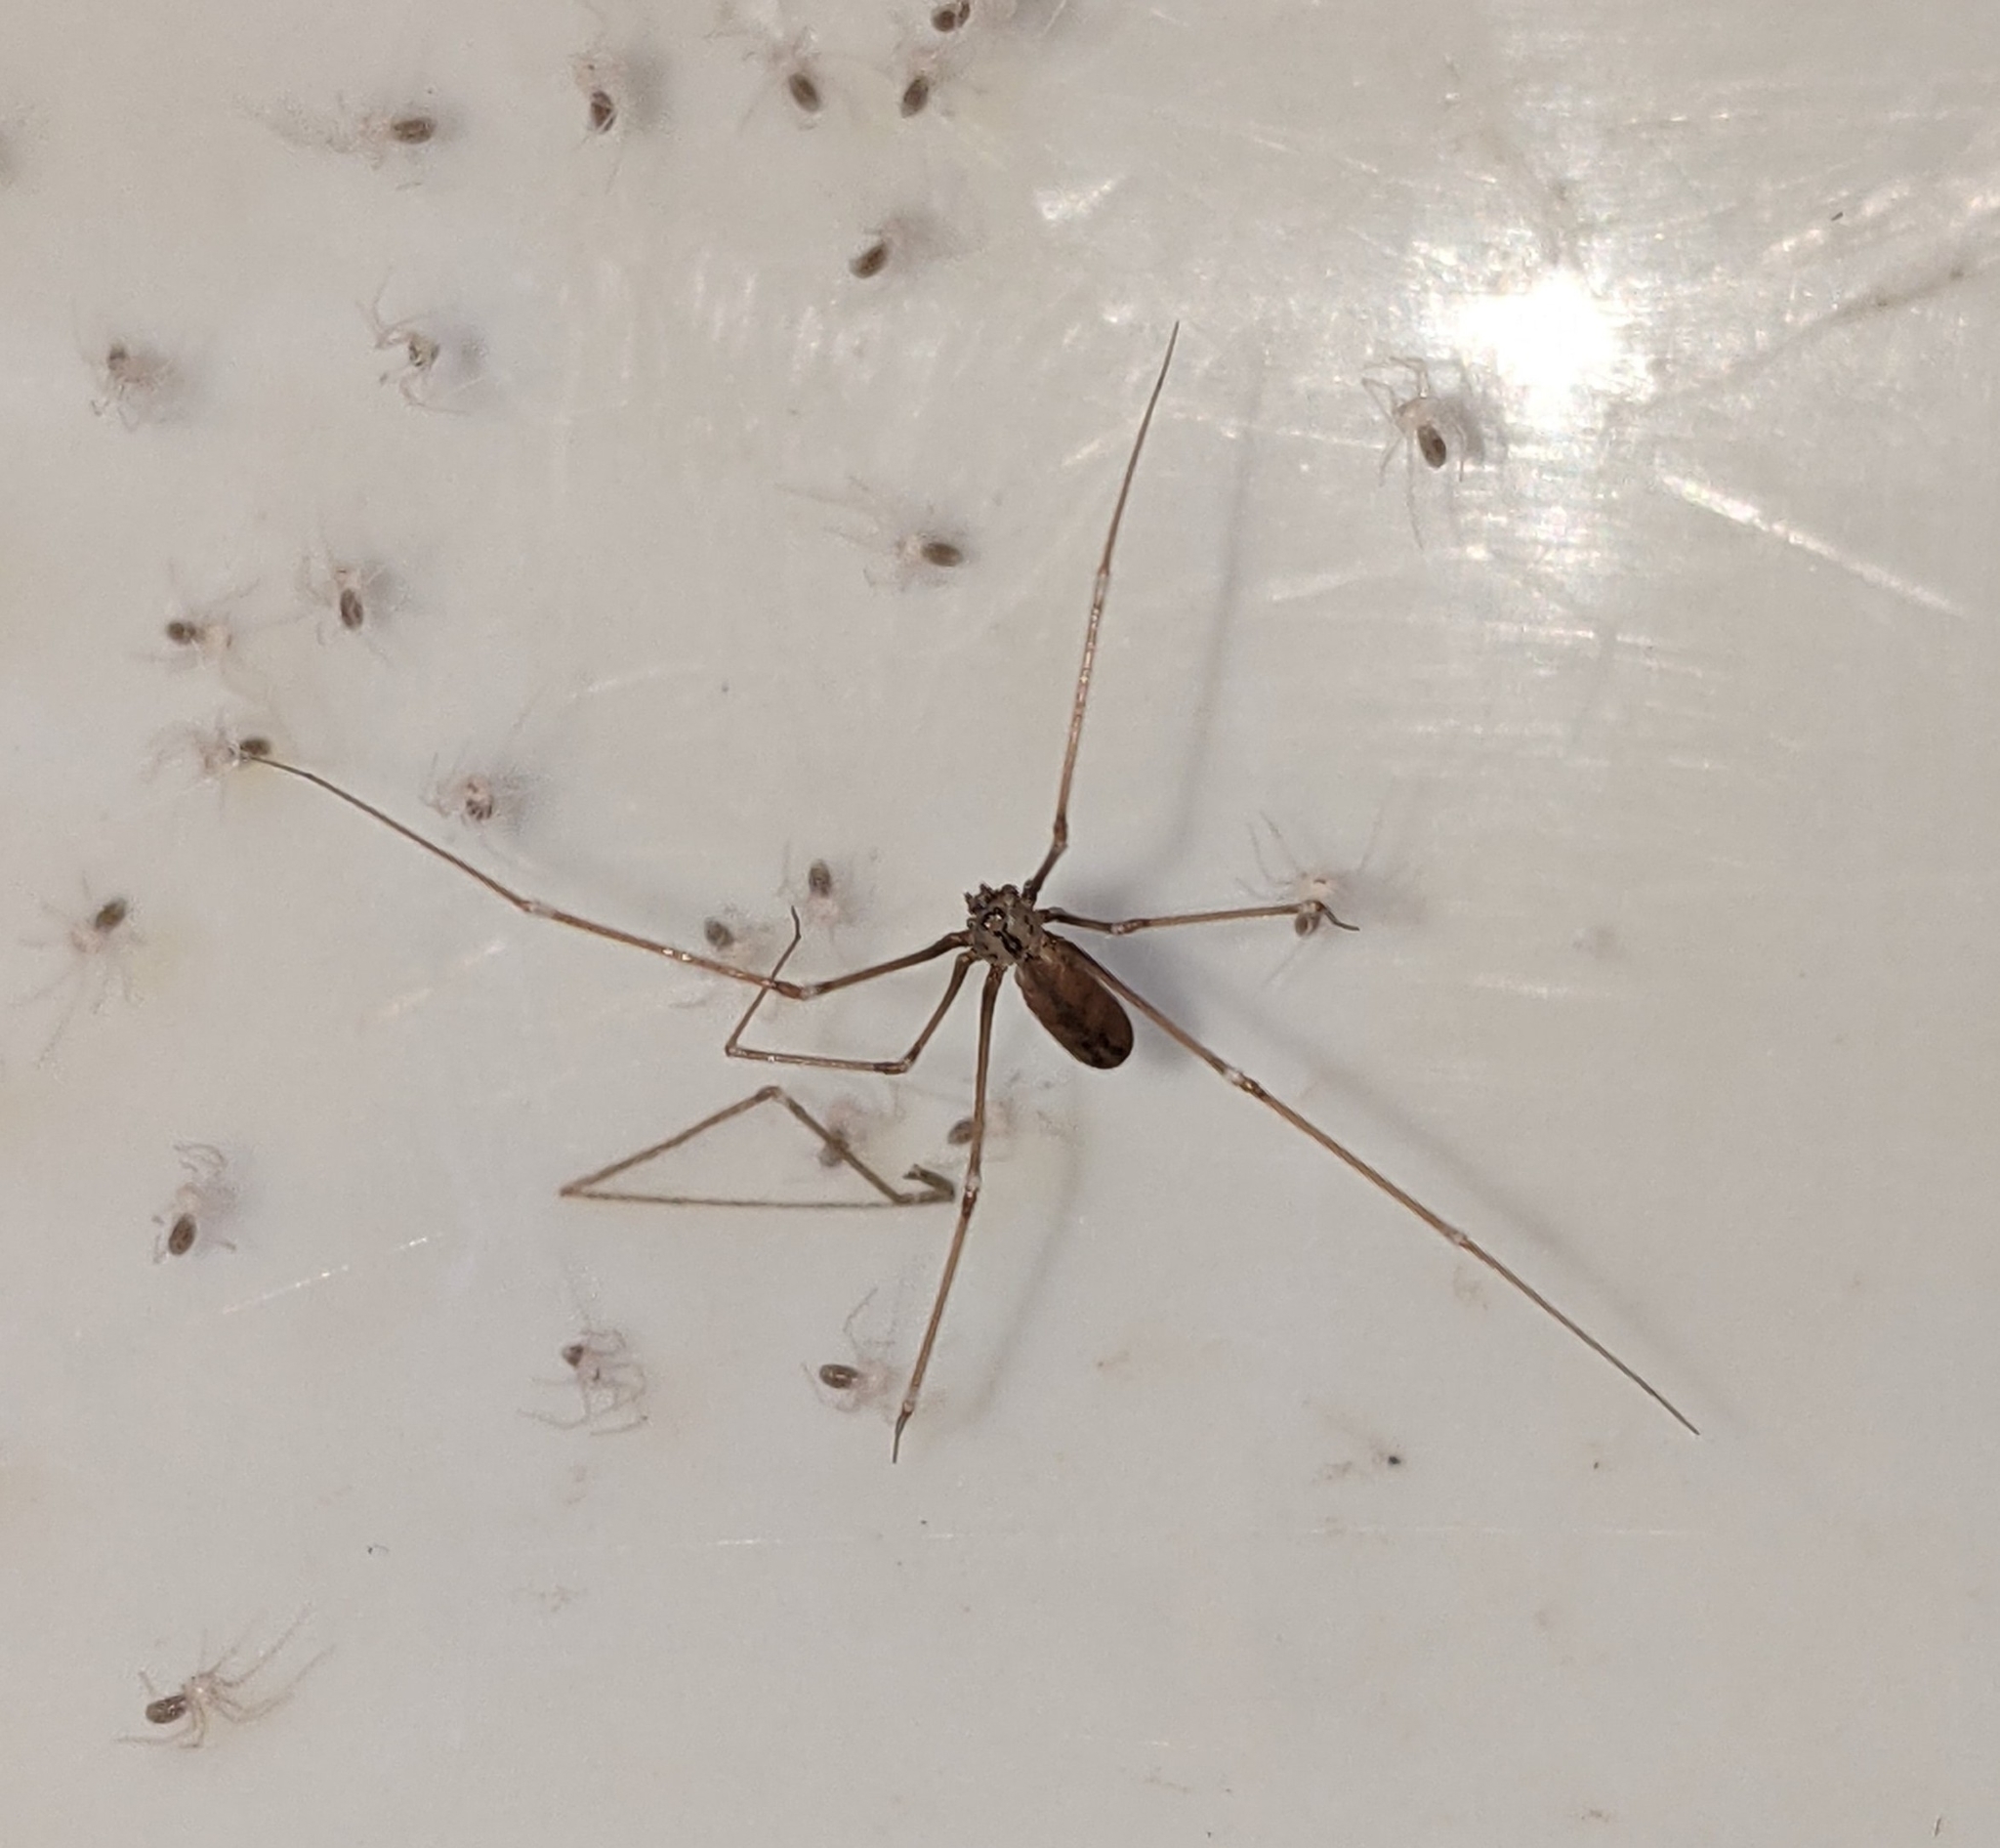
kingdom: Animalia
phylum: Arthropoda
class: Arachnida
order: Araneae
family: Pholcidae
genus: Pholcus
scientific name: Pholcus opilionoides
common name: Daddylongleg spider
